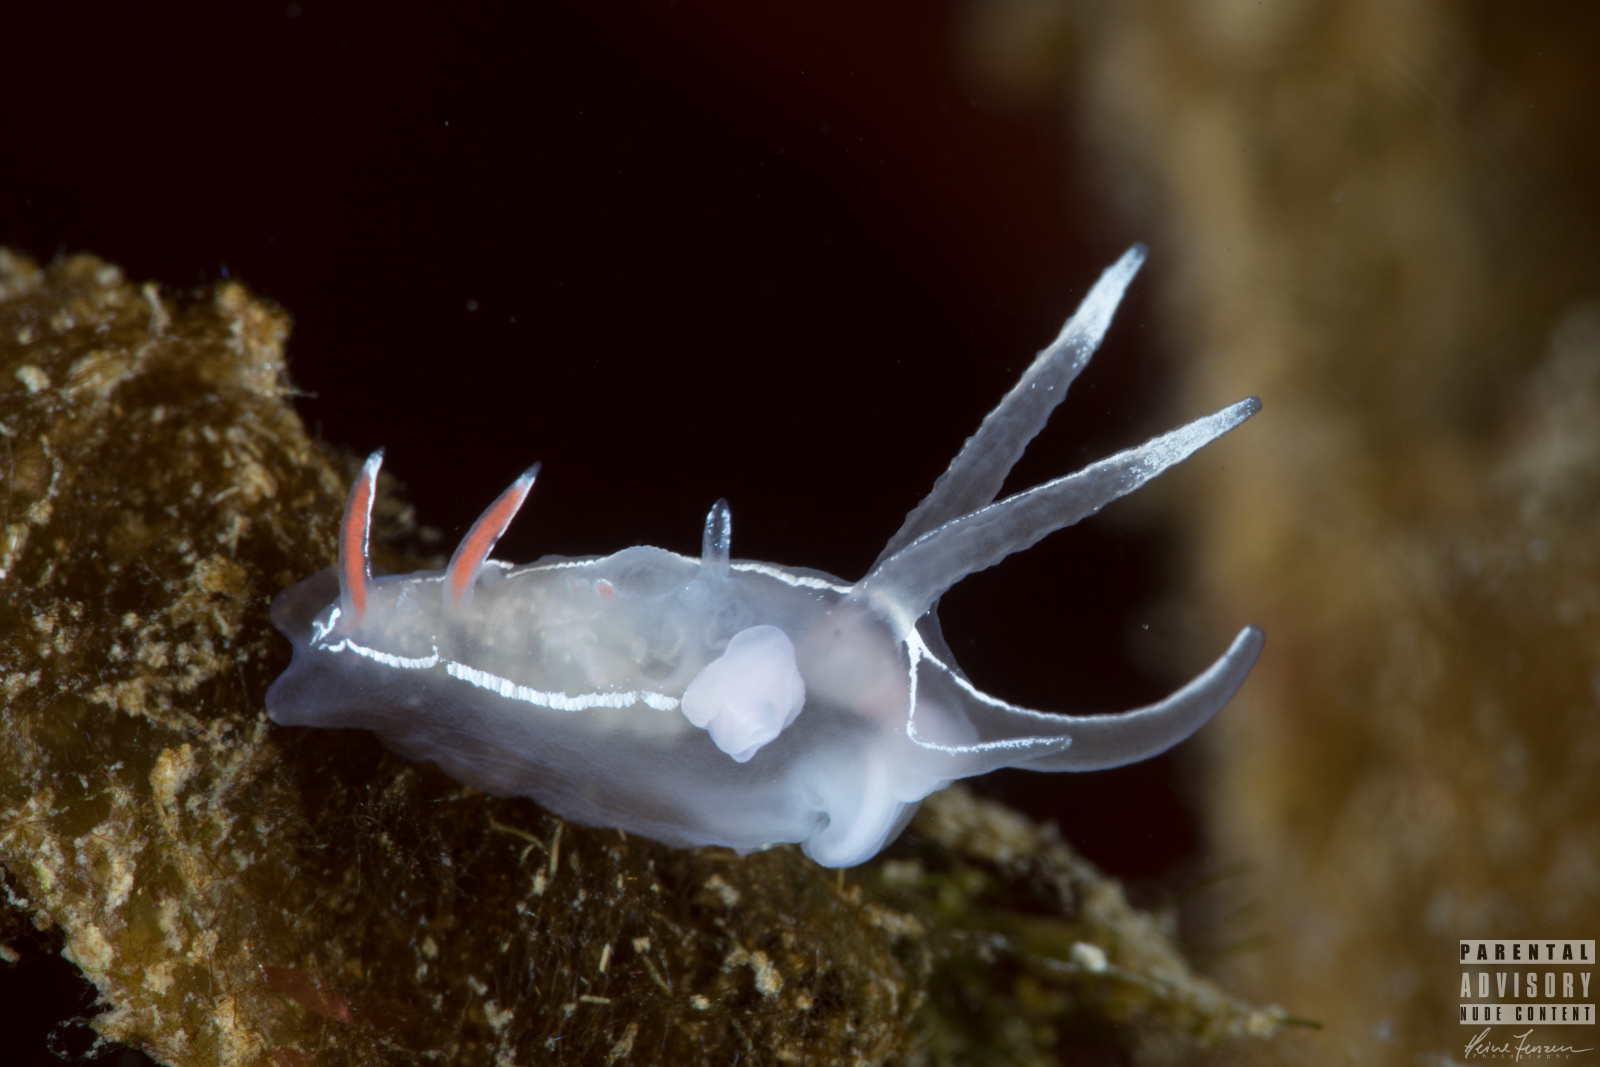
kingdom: Animalia
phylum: Mollusca
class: Gastropoda
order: Nudibranchia
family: Coryphellidae
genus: Coryphella
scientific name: Coryphella lineata
